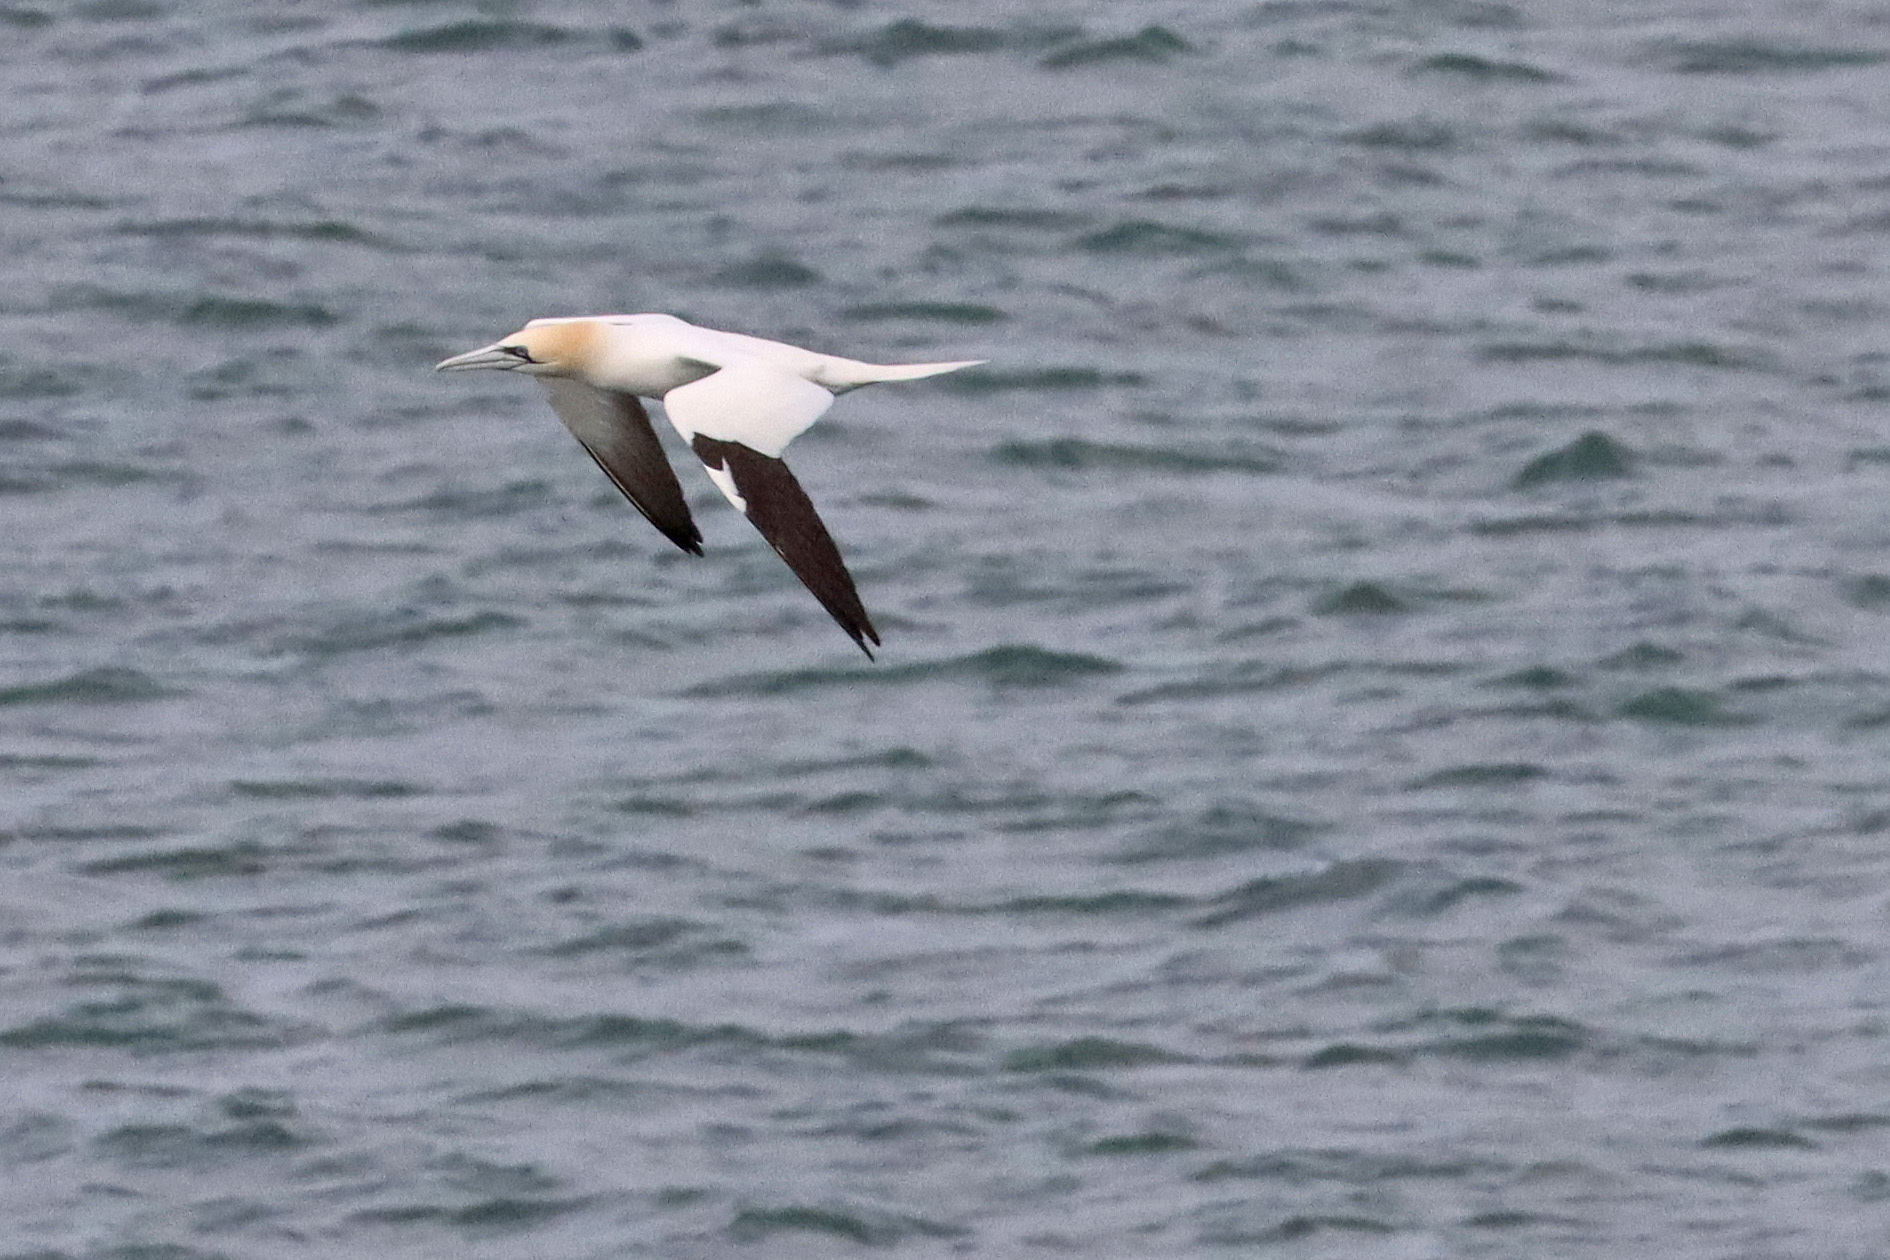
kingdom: Animalia
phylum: Chordata
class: Aves
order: Suliformes
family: Sulidae
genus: Morus
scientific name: Morus bassanus
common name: Northern gannet
